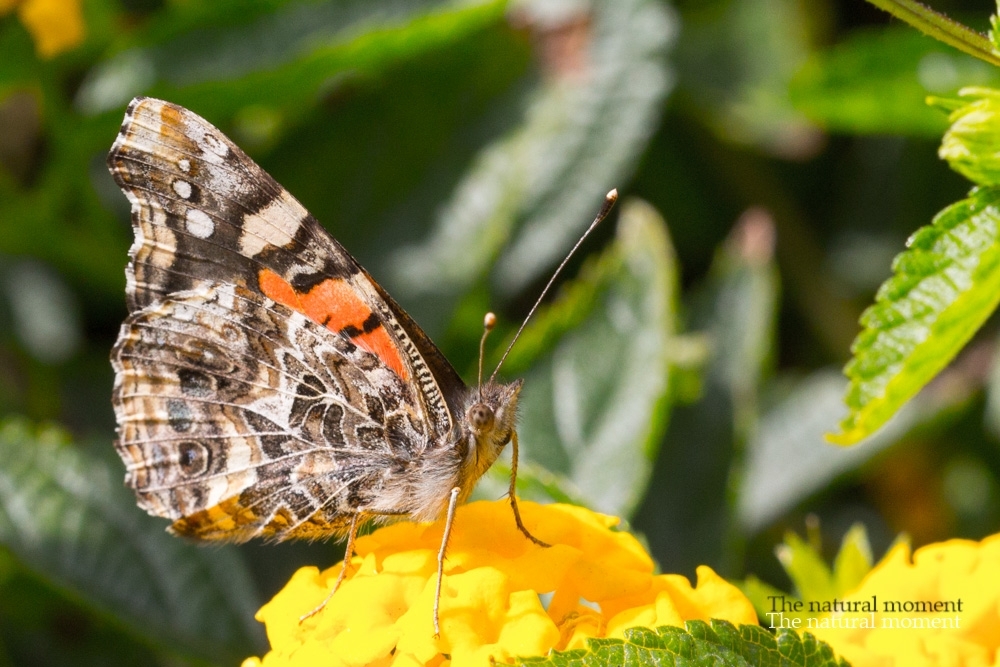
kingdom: Animalia
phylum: Arthropoda
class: Insecta
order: Lepidoptera
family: Nymphalidae
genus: Vanessa
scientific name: Vanessa carye
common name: Subtropical lady
